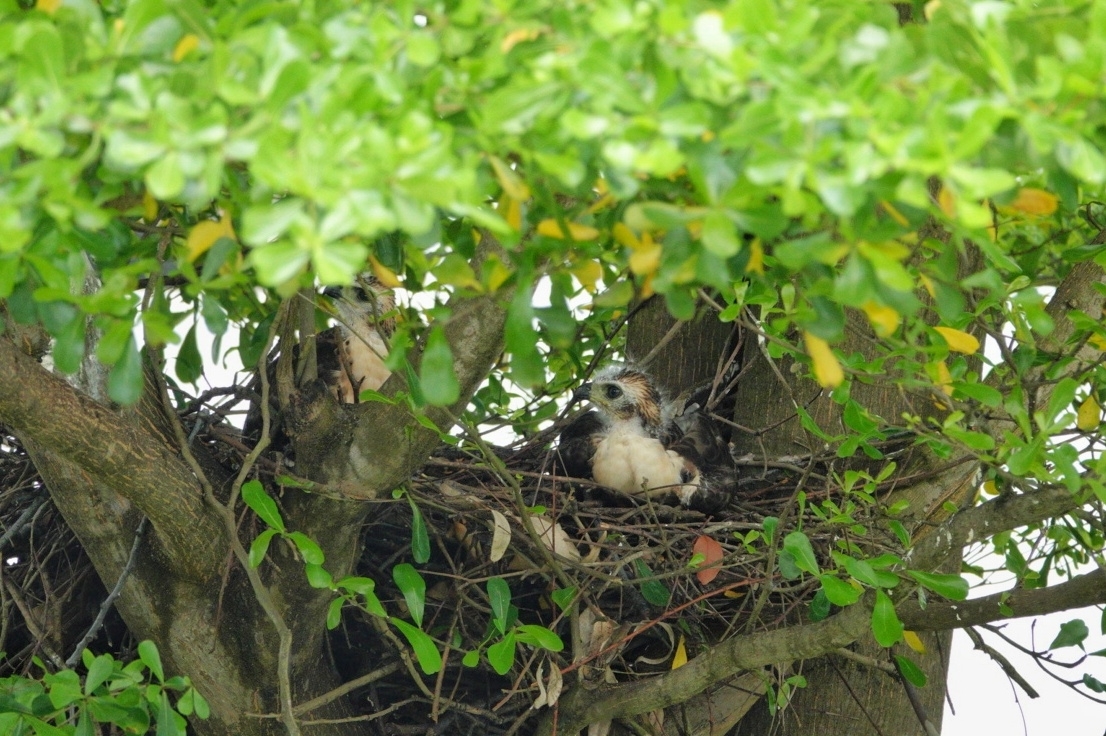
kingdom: Animalia
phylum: Chordata
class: Aves
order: Accipitriformes
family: Accipitridae
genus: Accipiter
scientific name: Accipiter trivirgatus
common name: Crested goshawk
